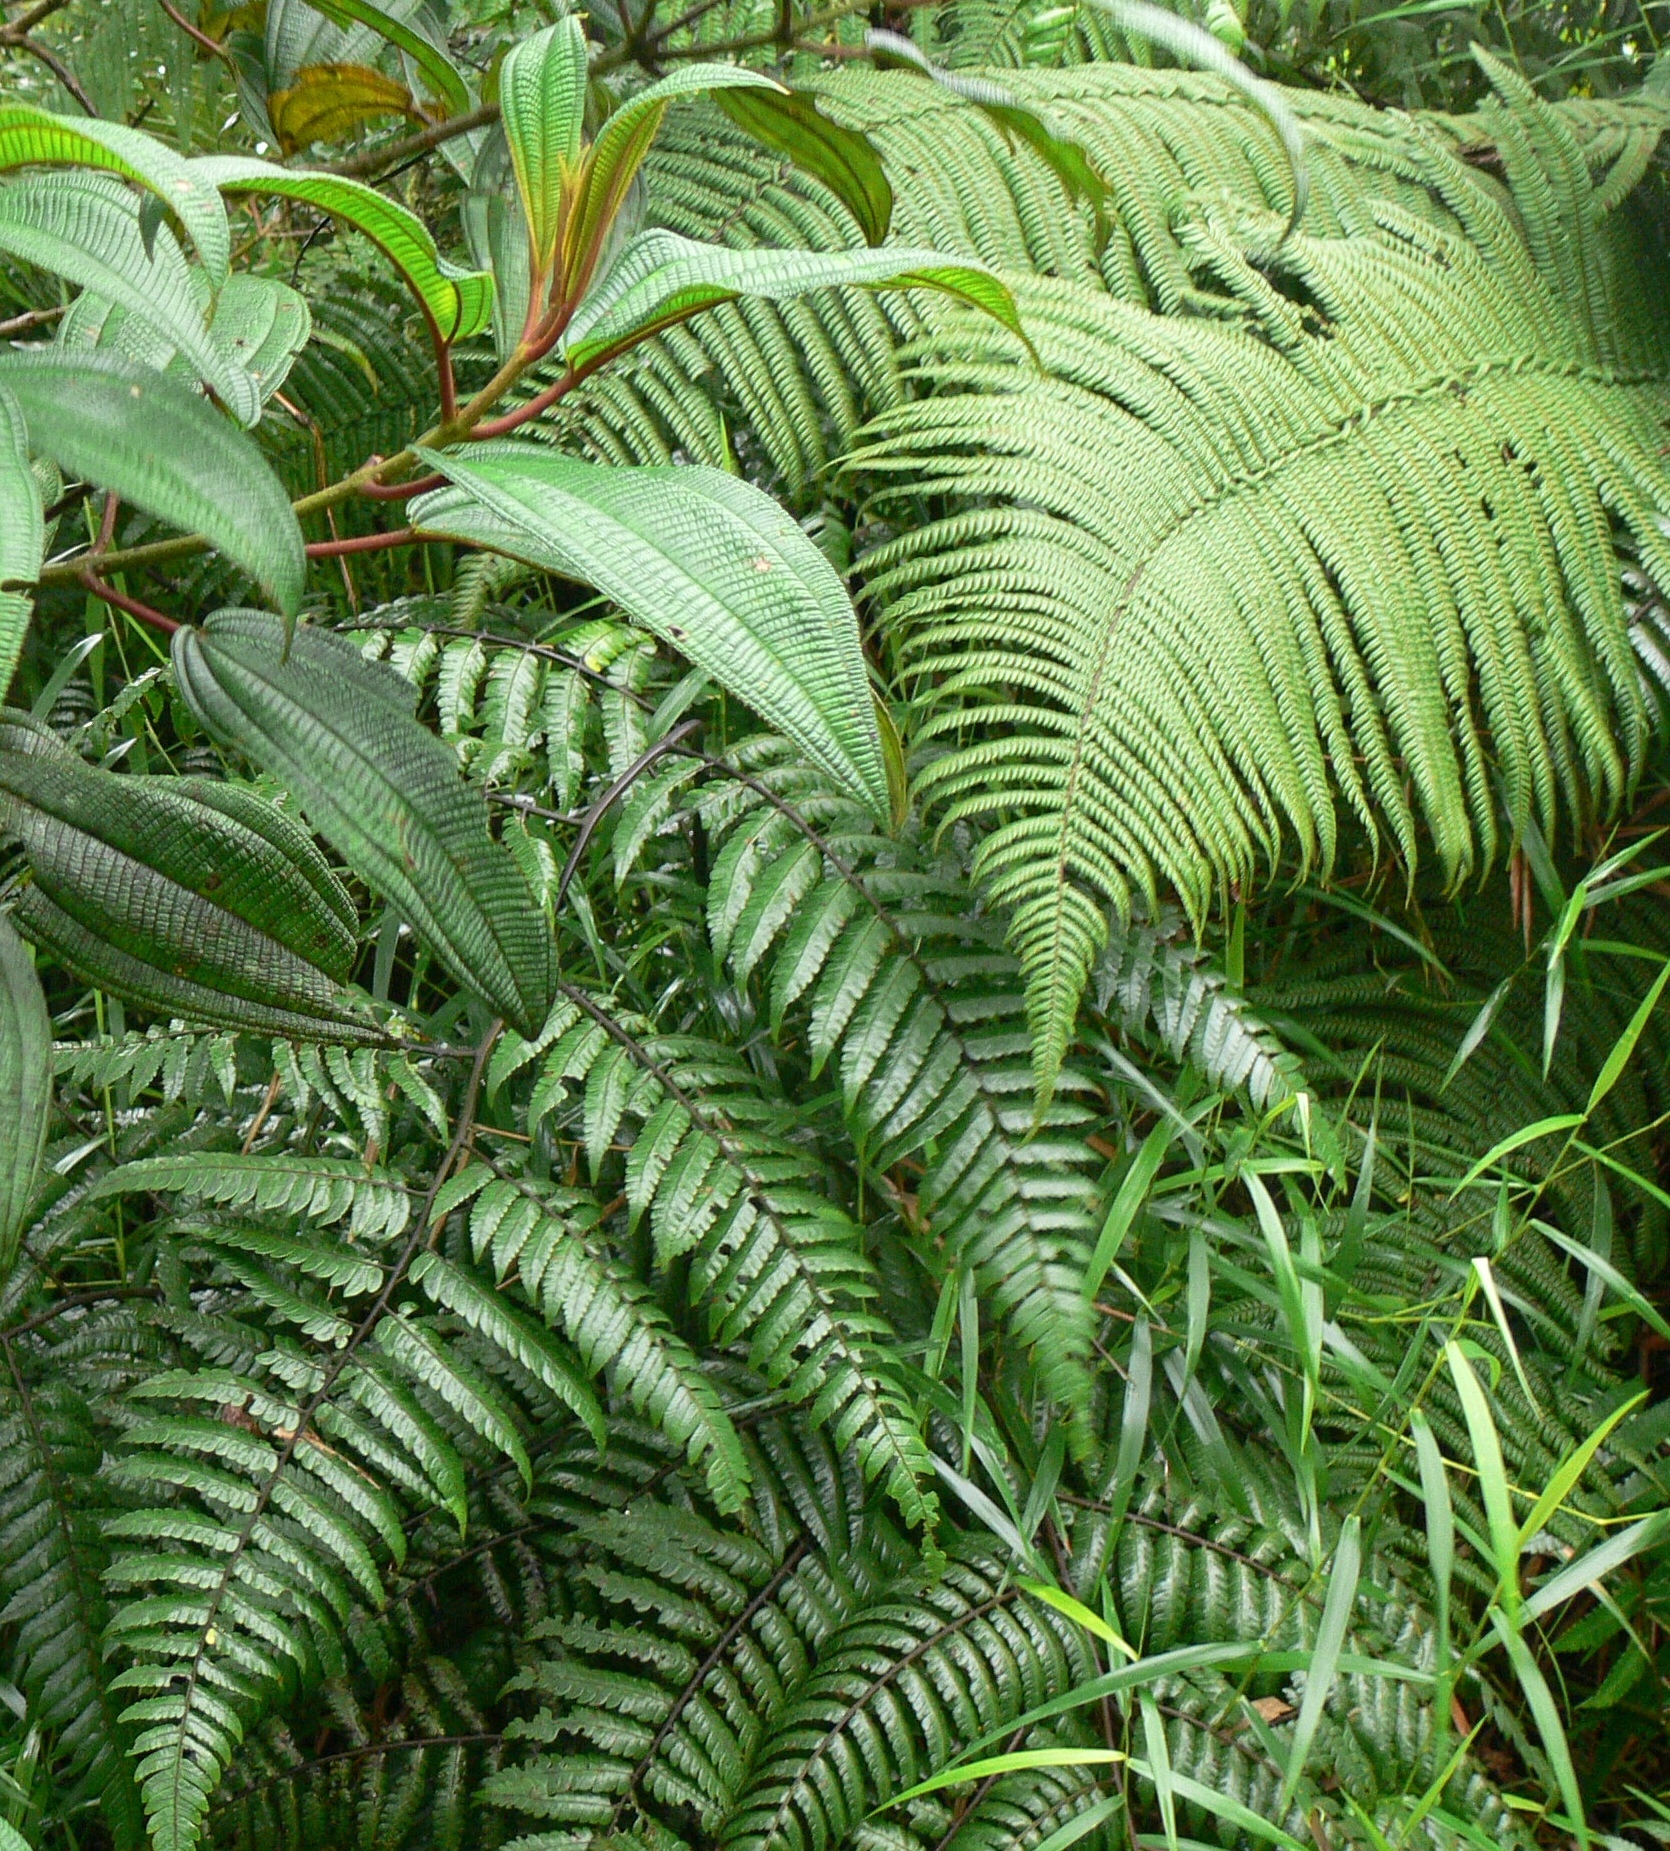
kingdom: Plantae
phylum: Tracheophyta
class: Polypodiopsida
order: Cyatheales
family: Cyatheaceae
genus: Cyathea
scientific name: Cyathea borinquena
